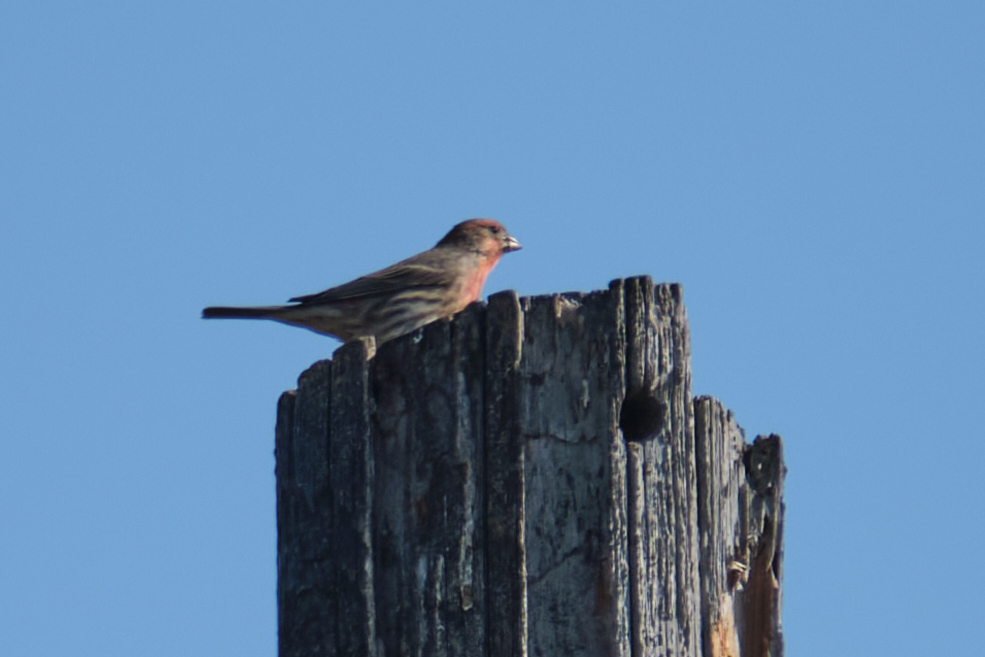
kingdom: Animalia
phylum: Chordata
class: Aves
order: Passeriformes
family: Fringillidae
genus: Haemorhous
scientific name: Haemorhous mexicanus
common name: House finch
